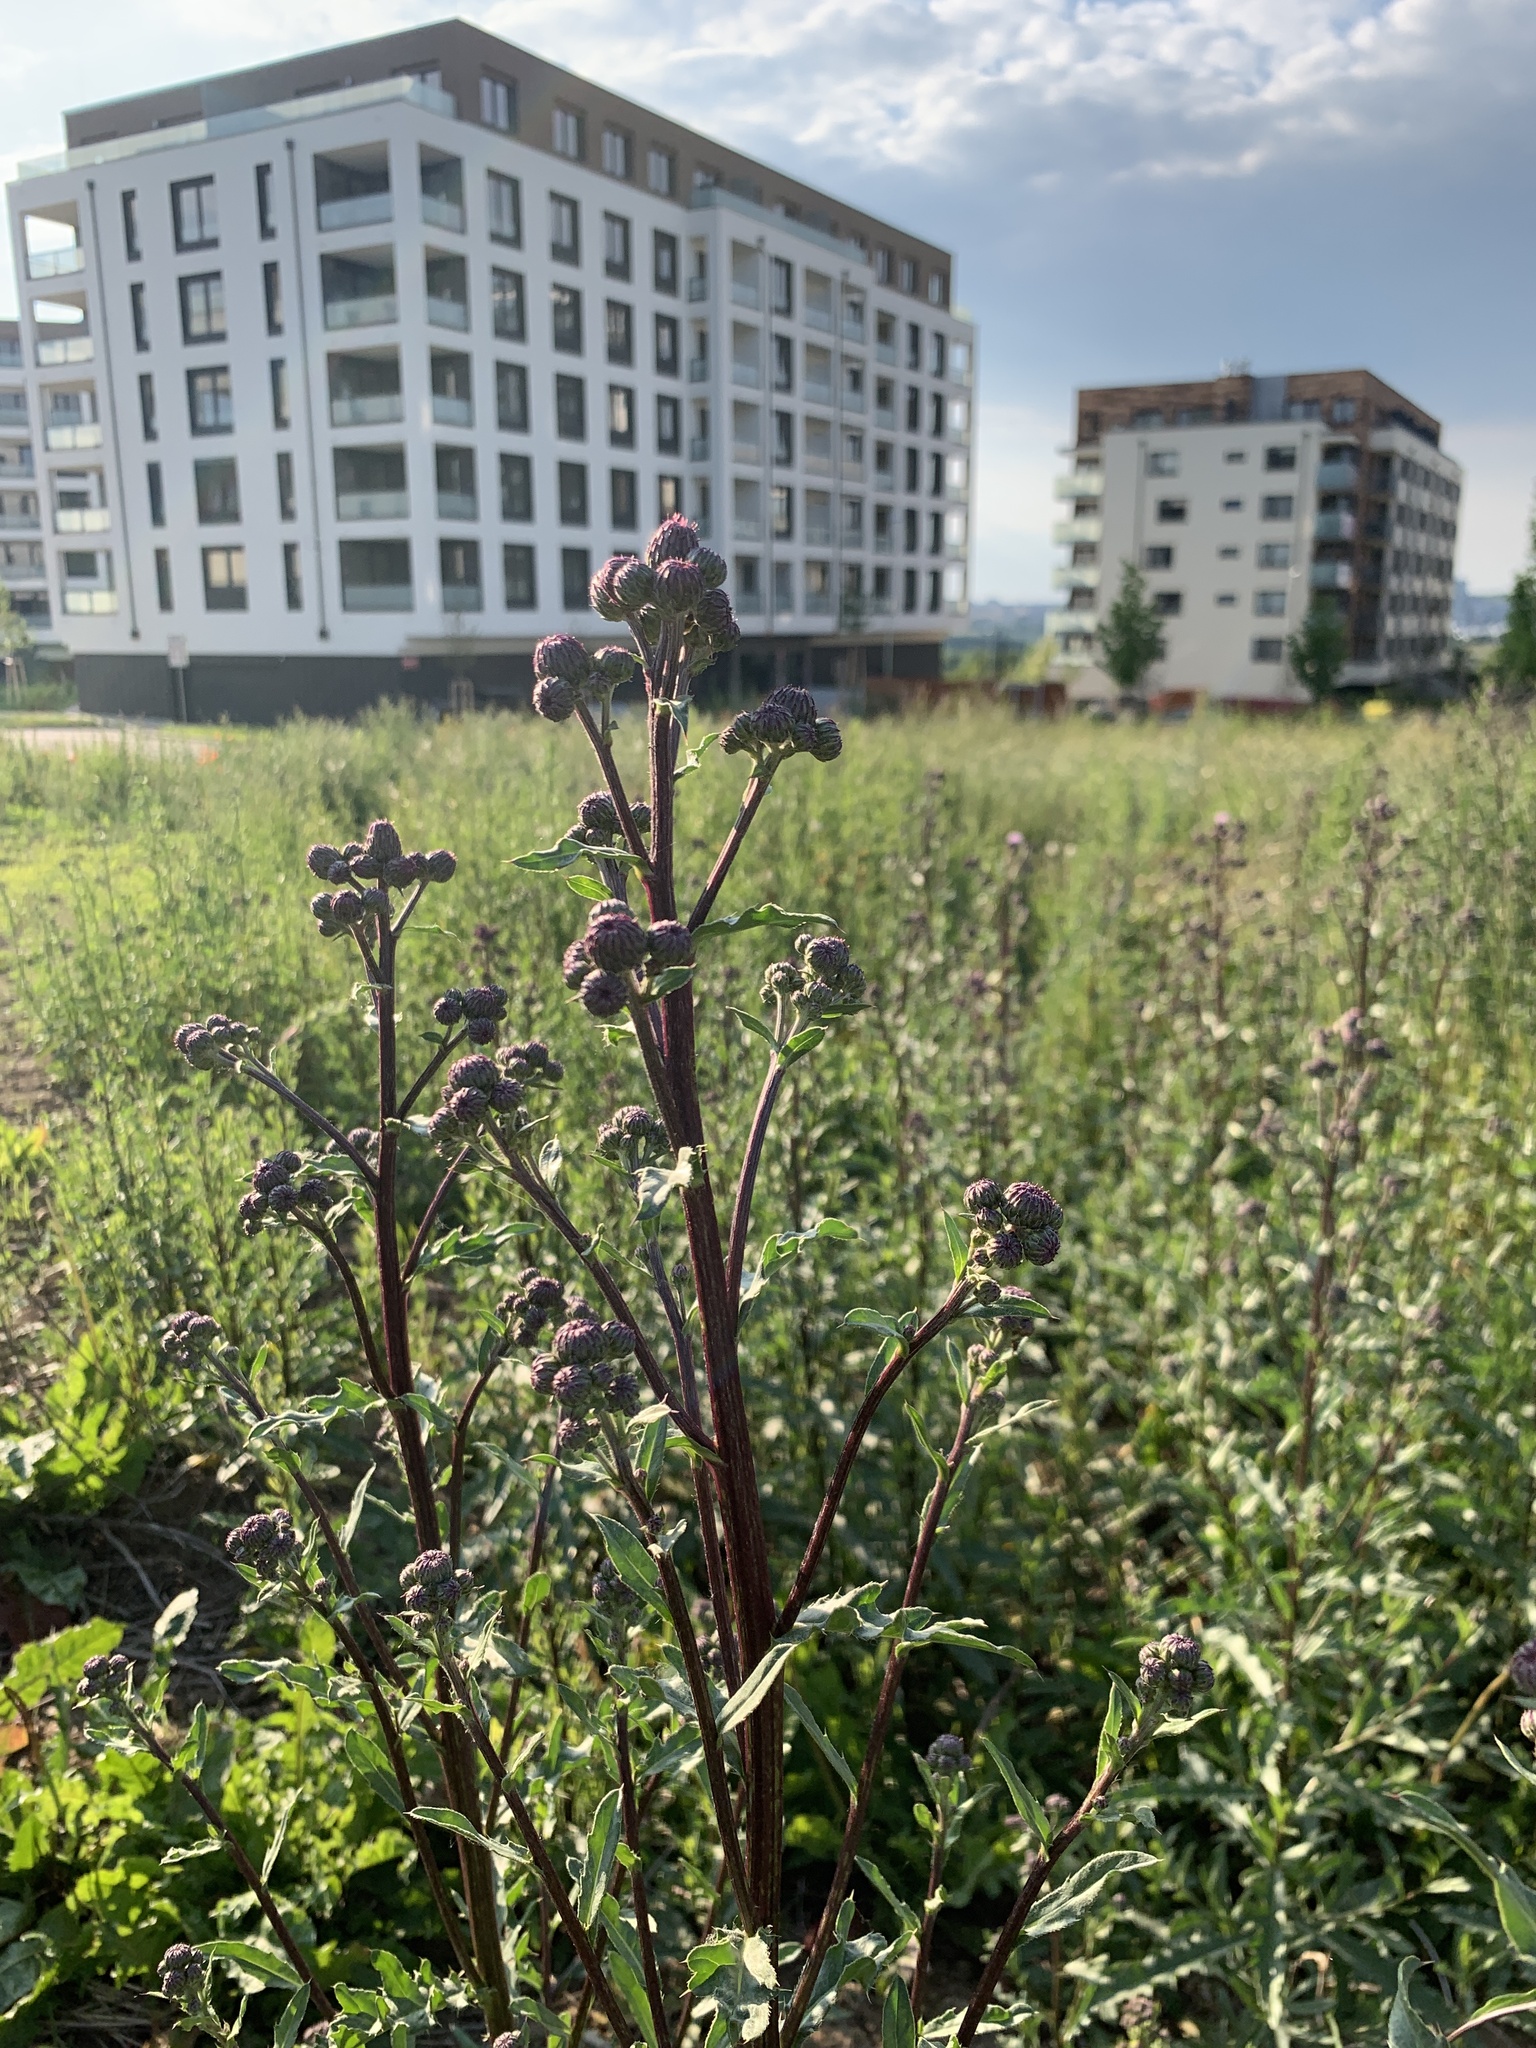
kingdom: Plantae
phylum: Tracheophyta
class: Magnoliopsida
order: Asterales
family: Asteraceae
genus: Cirsium
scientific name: Cirsium arvense
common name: Creeping thistle
